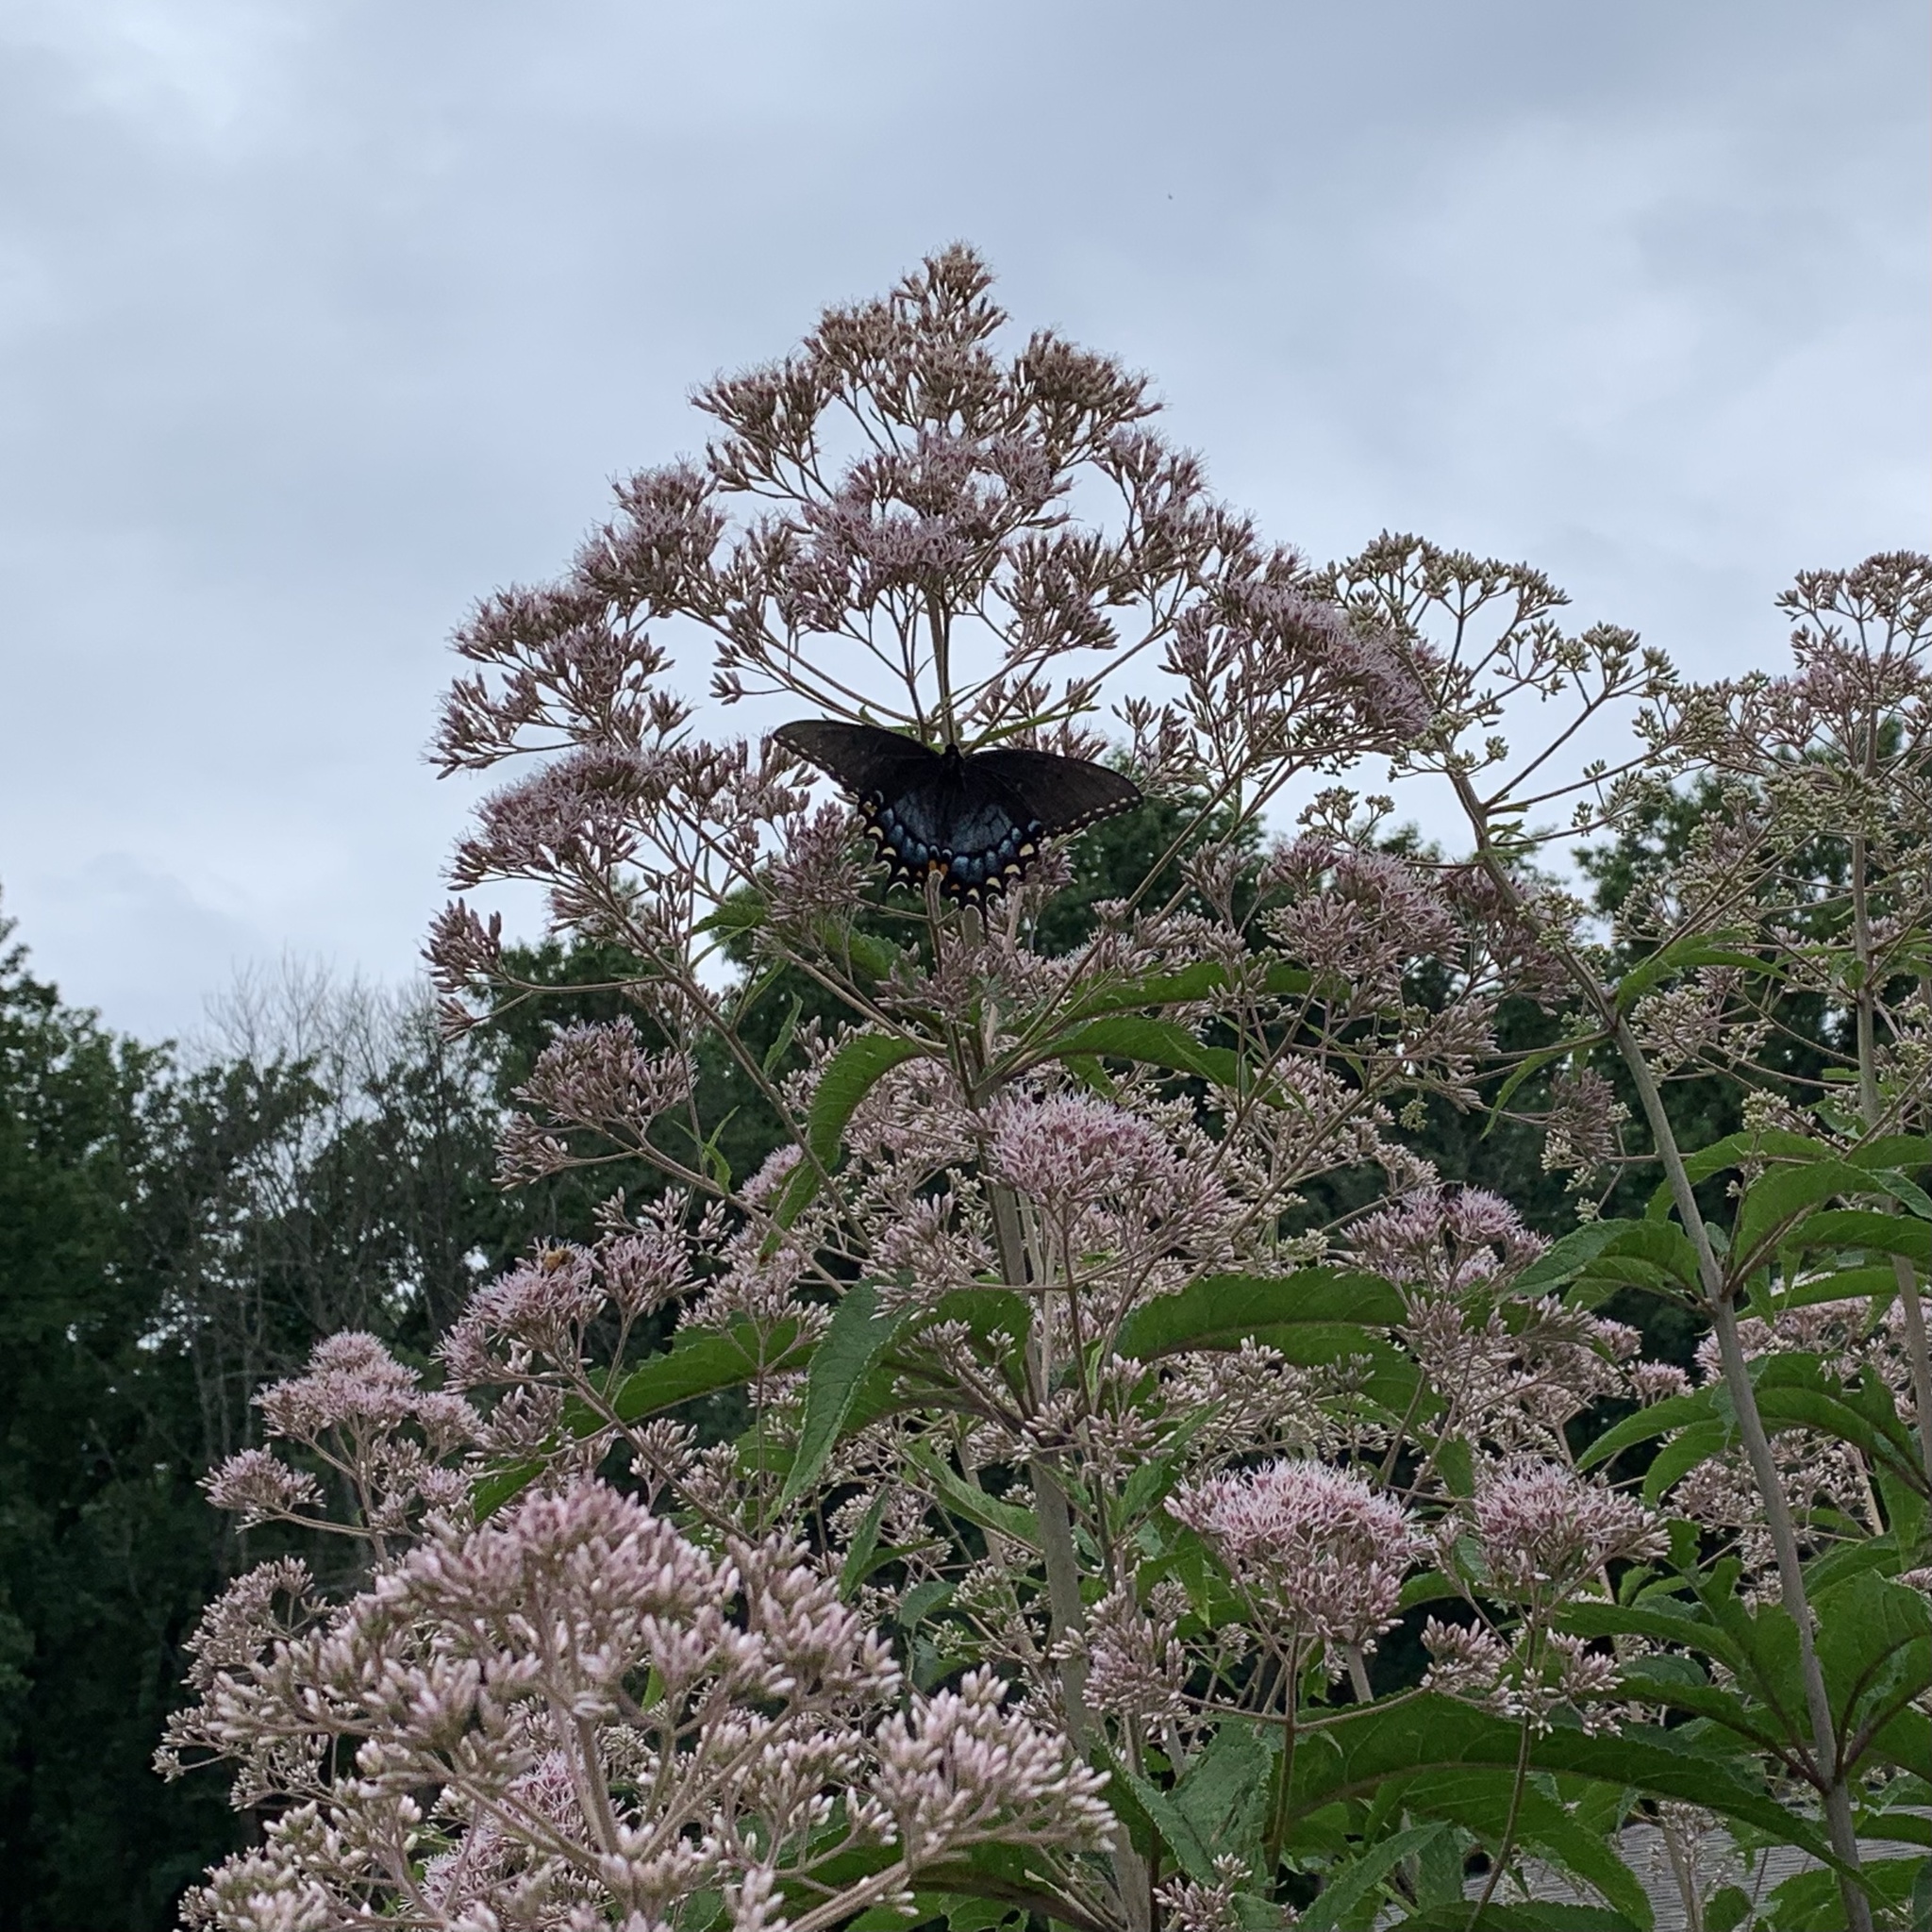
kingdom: Animalia
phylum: Arthropoda
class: Insecta
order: Lepidoptera
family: Papilionidae
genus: Papilio
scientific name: Papilio glaucus
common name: Tiger swallowtail
